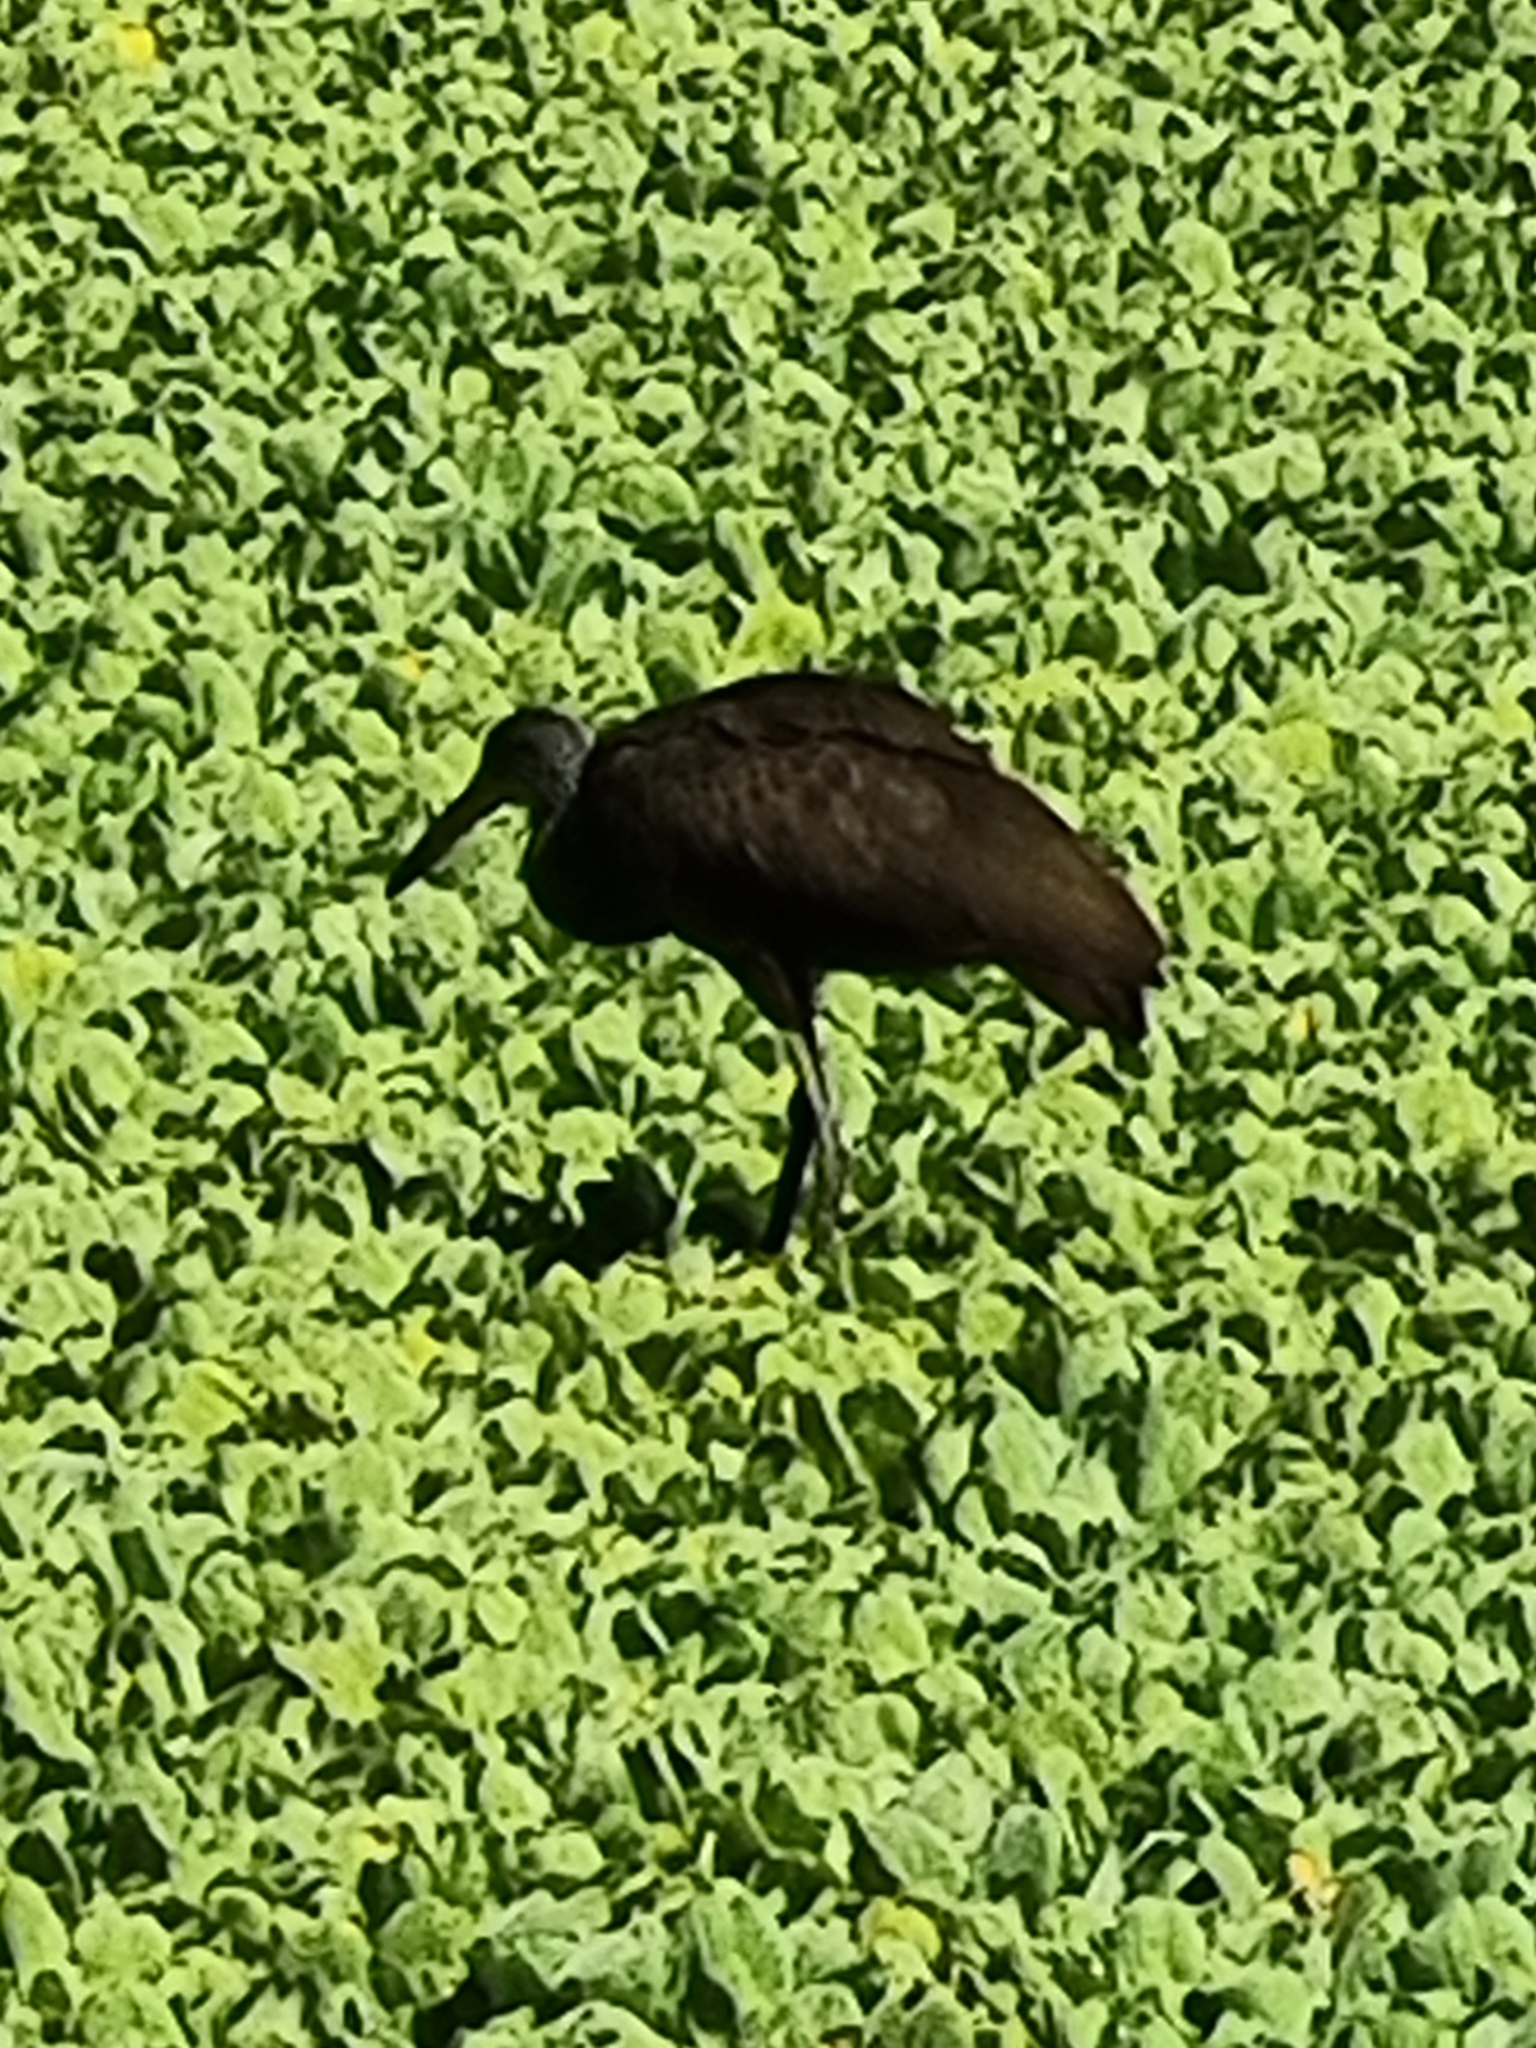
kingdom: Animalia
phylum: Chordata
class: Aves
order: Gruiformes
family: Aramidae
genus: Aramus
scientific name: Aramus guarauna
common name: Limpkin
